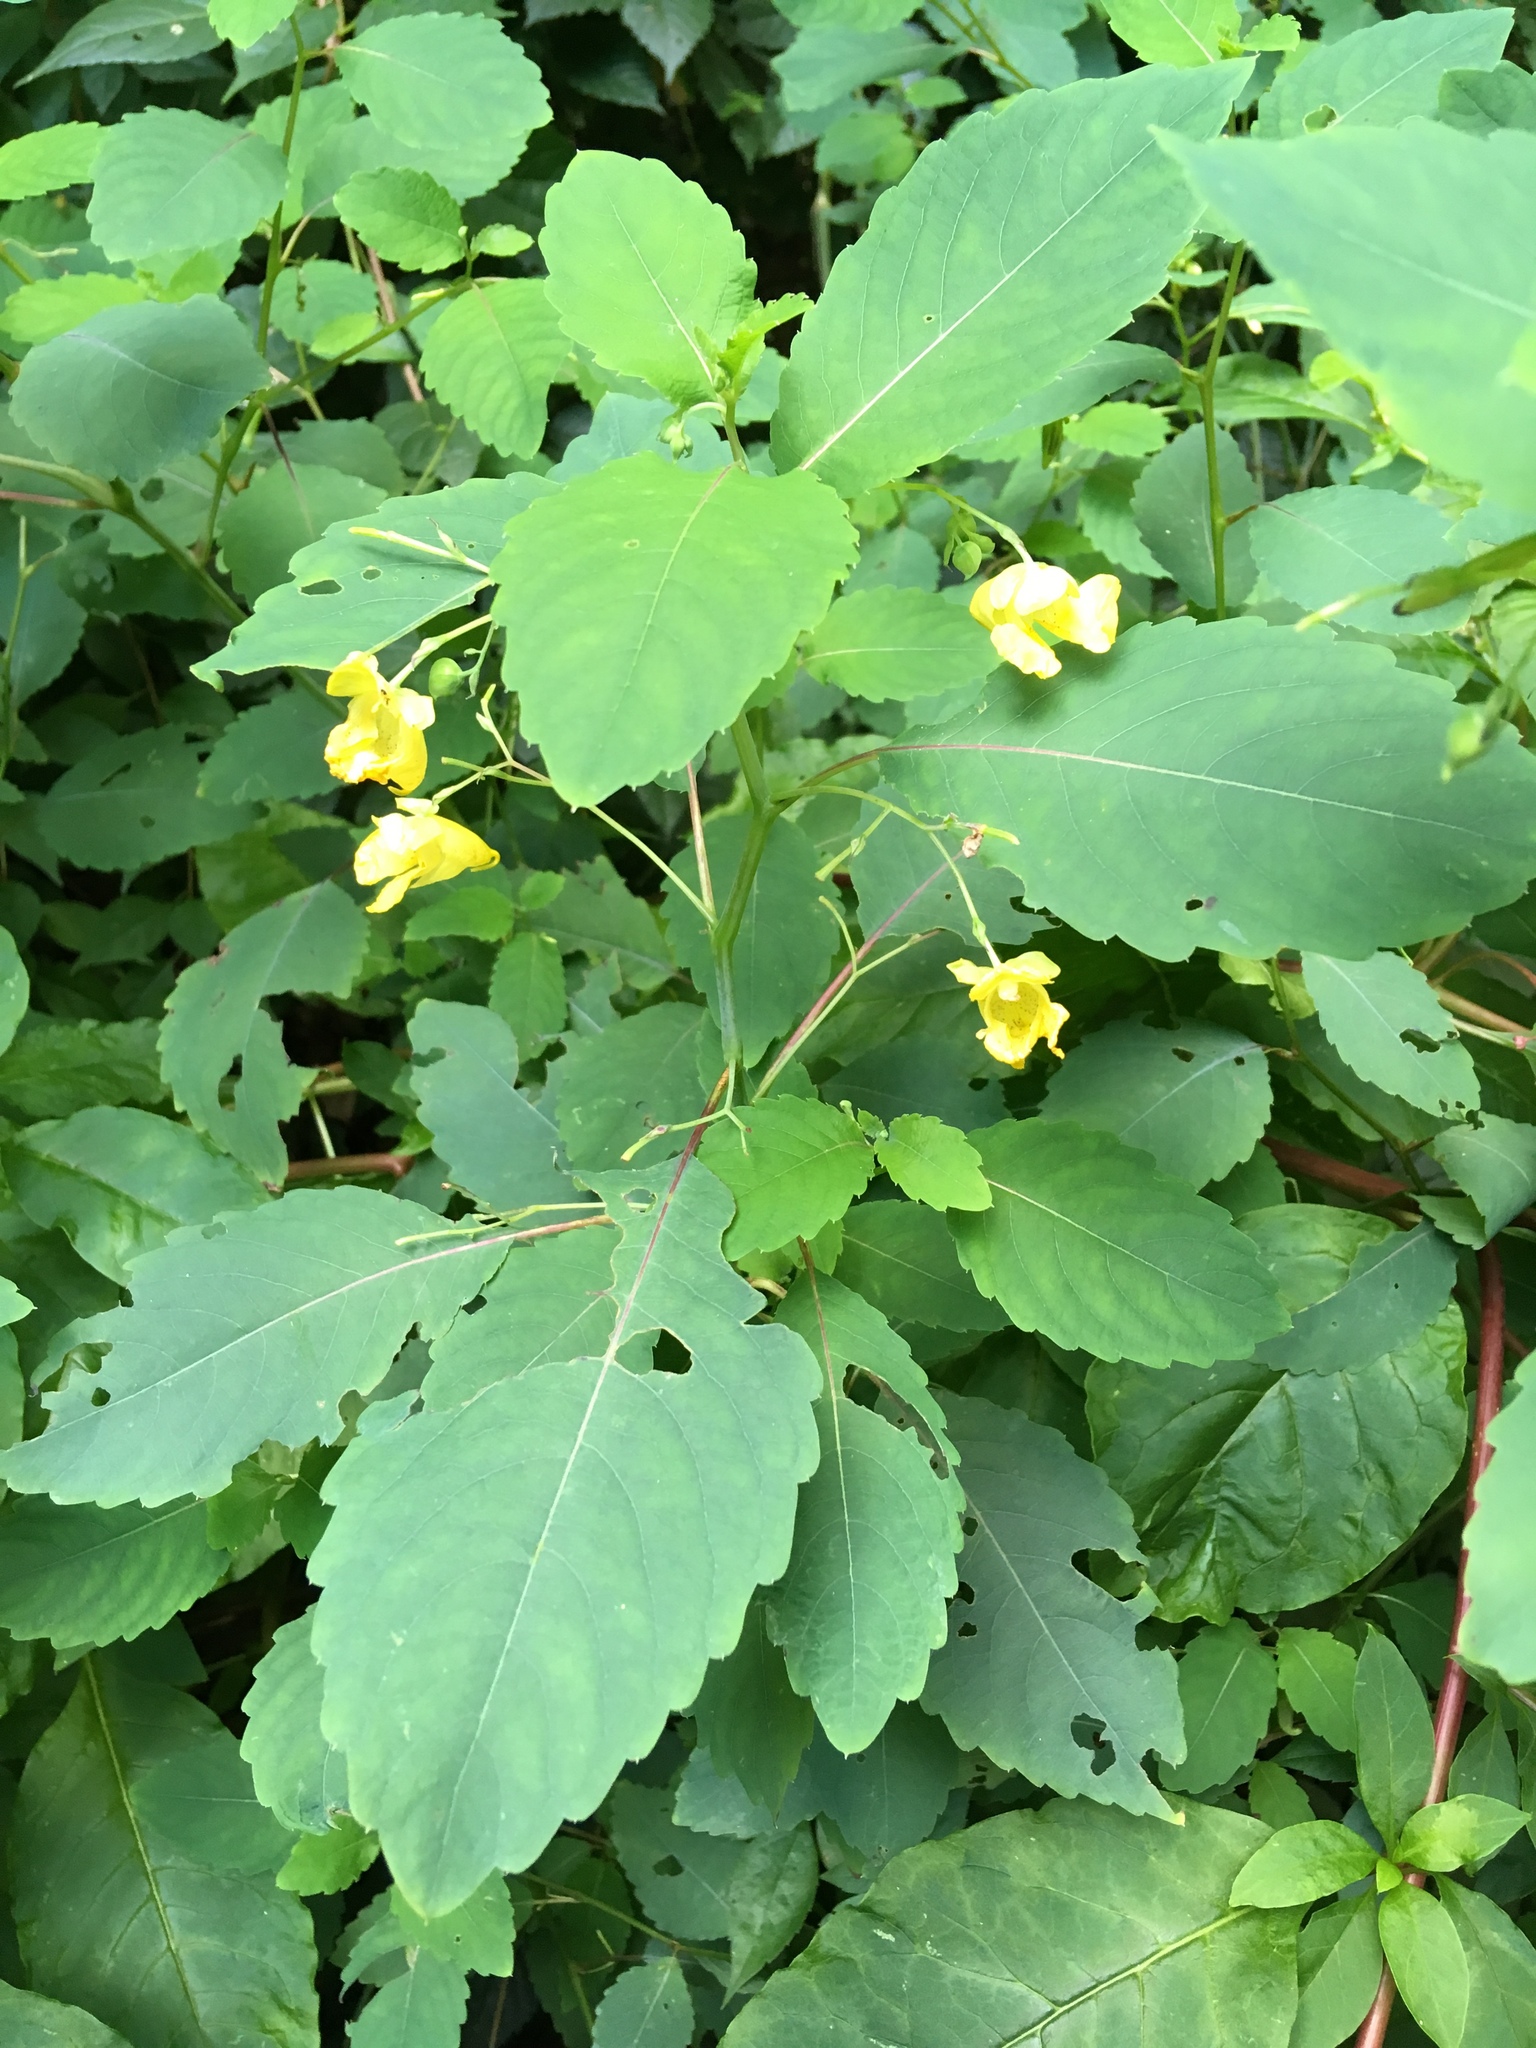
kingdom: Plantae
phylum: Tracheophyta
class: Magnoliopsida
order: Ericales
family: Balsaminaceae
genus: Impatiens
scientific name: Impatiens pallida
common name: Pale snapweed
